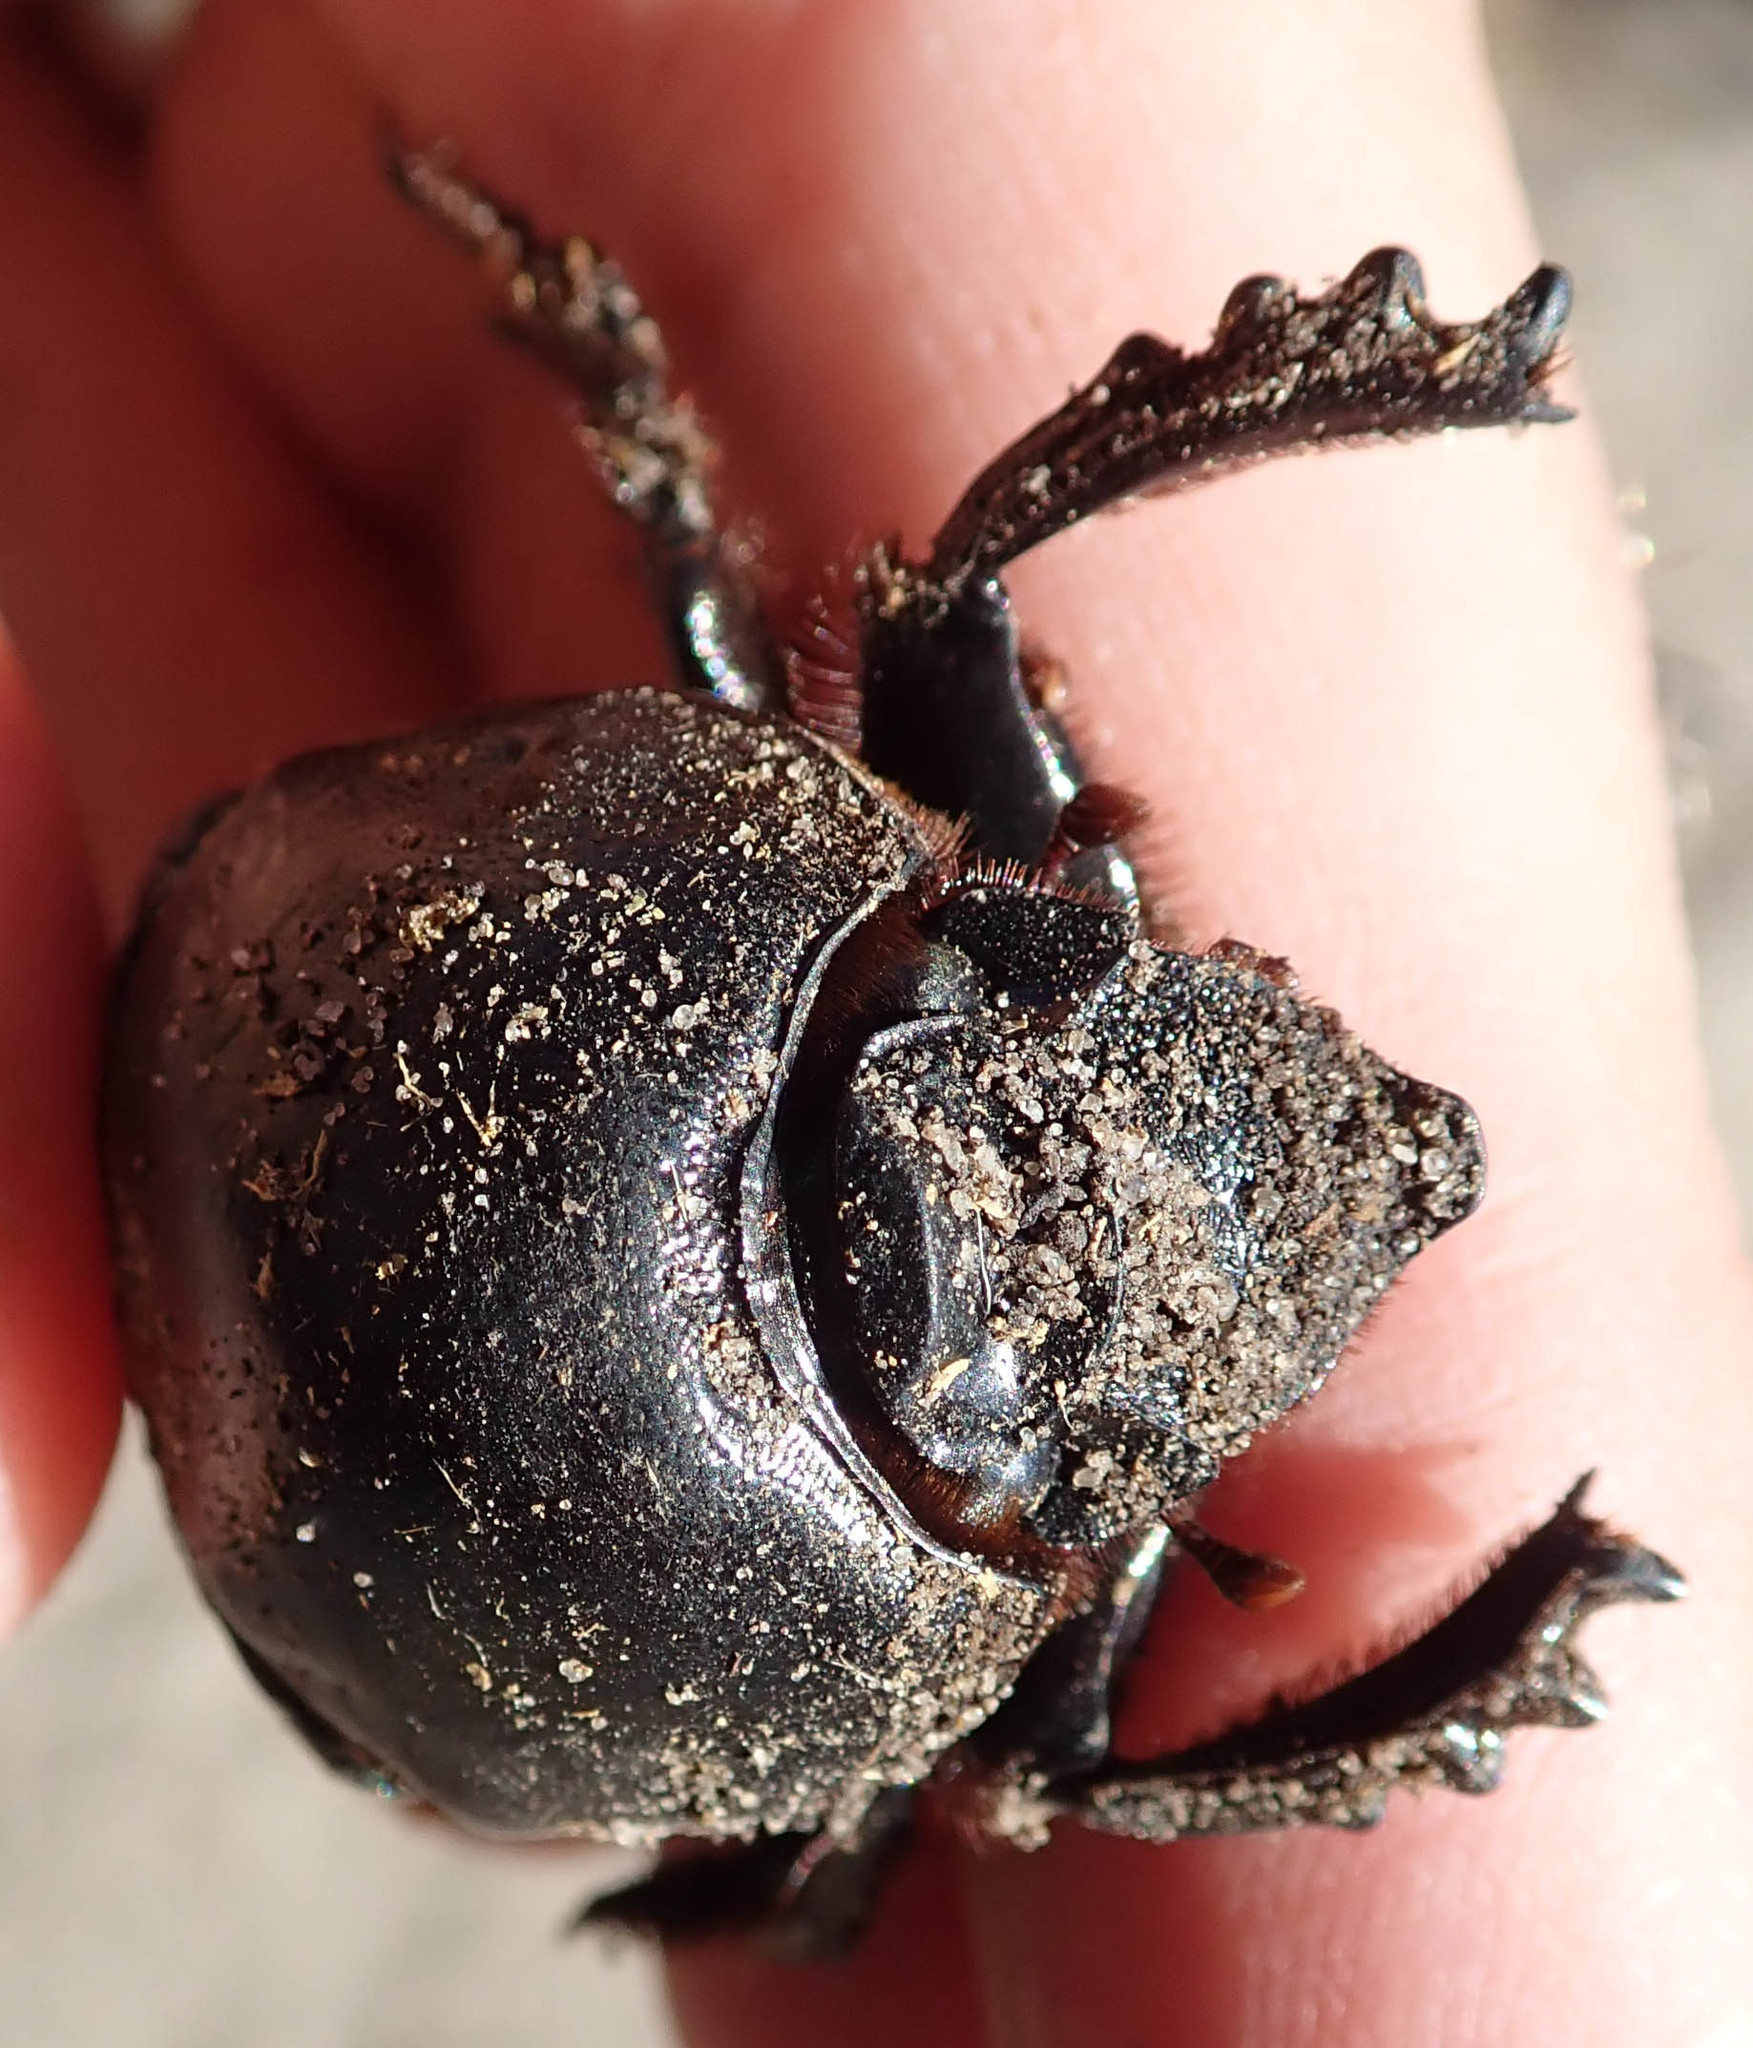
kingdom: Animalia
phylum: Arthropoda
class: Insecta
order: Coleoptera
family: Scarabaeidae
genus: Megalonitis
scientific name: Megalonitis bohemanni
